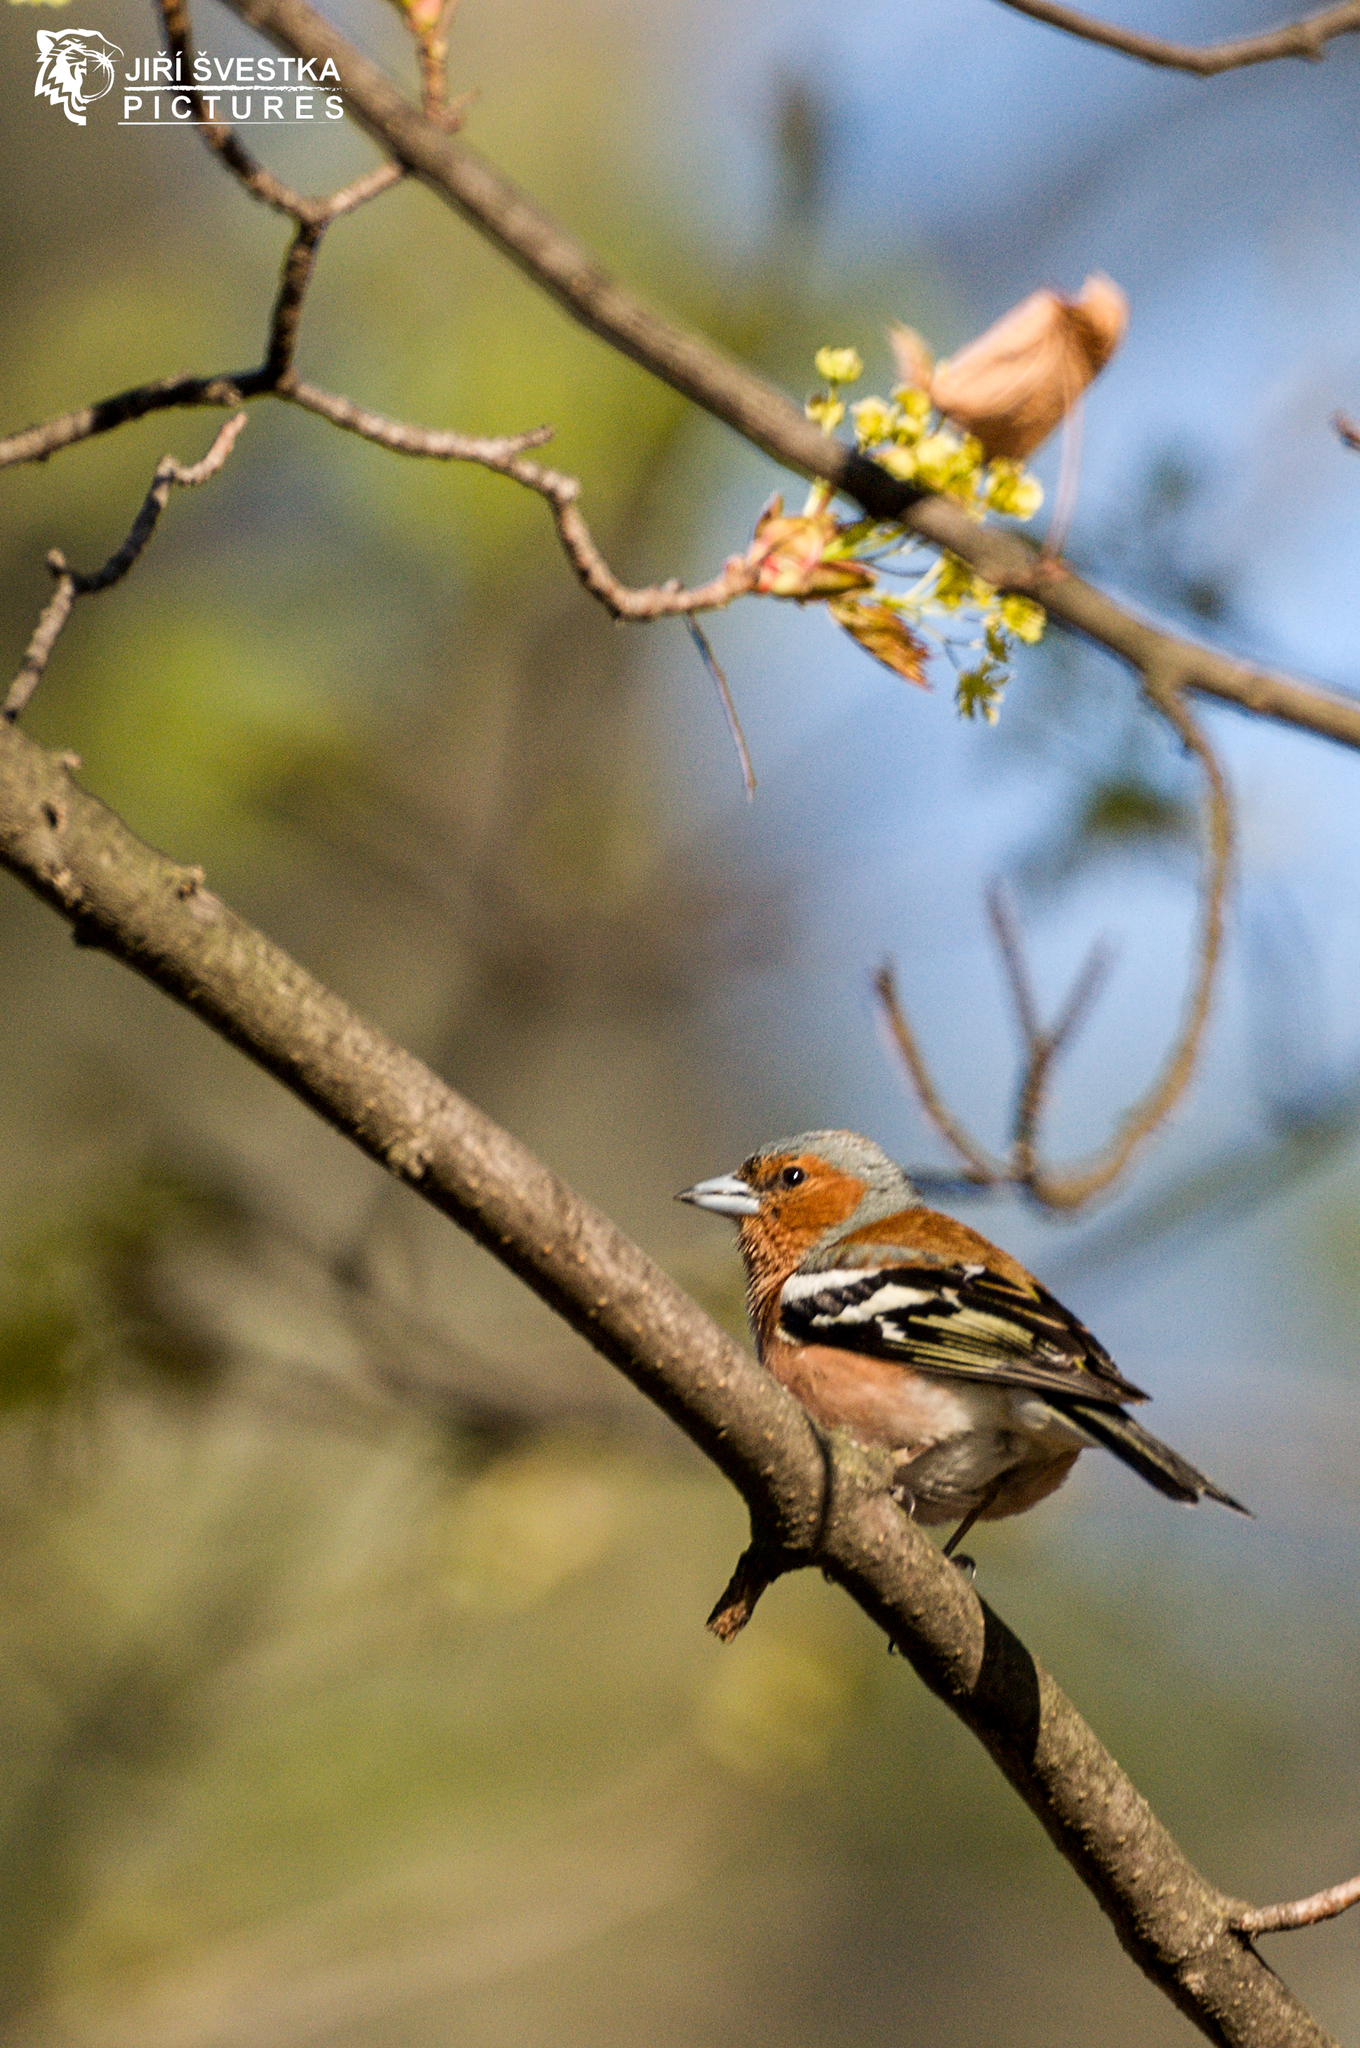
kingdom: Animalia
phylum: Chordata
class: Aves
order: Passeriformes
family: Fringillidae
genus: Fringilla
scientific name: Fringilla coelebs
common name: Common chaffinch
